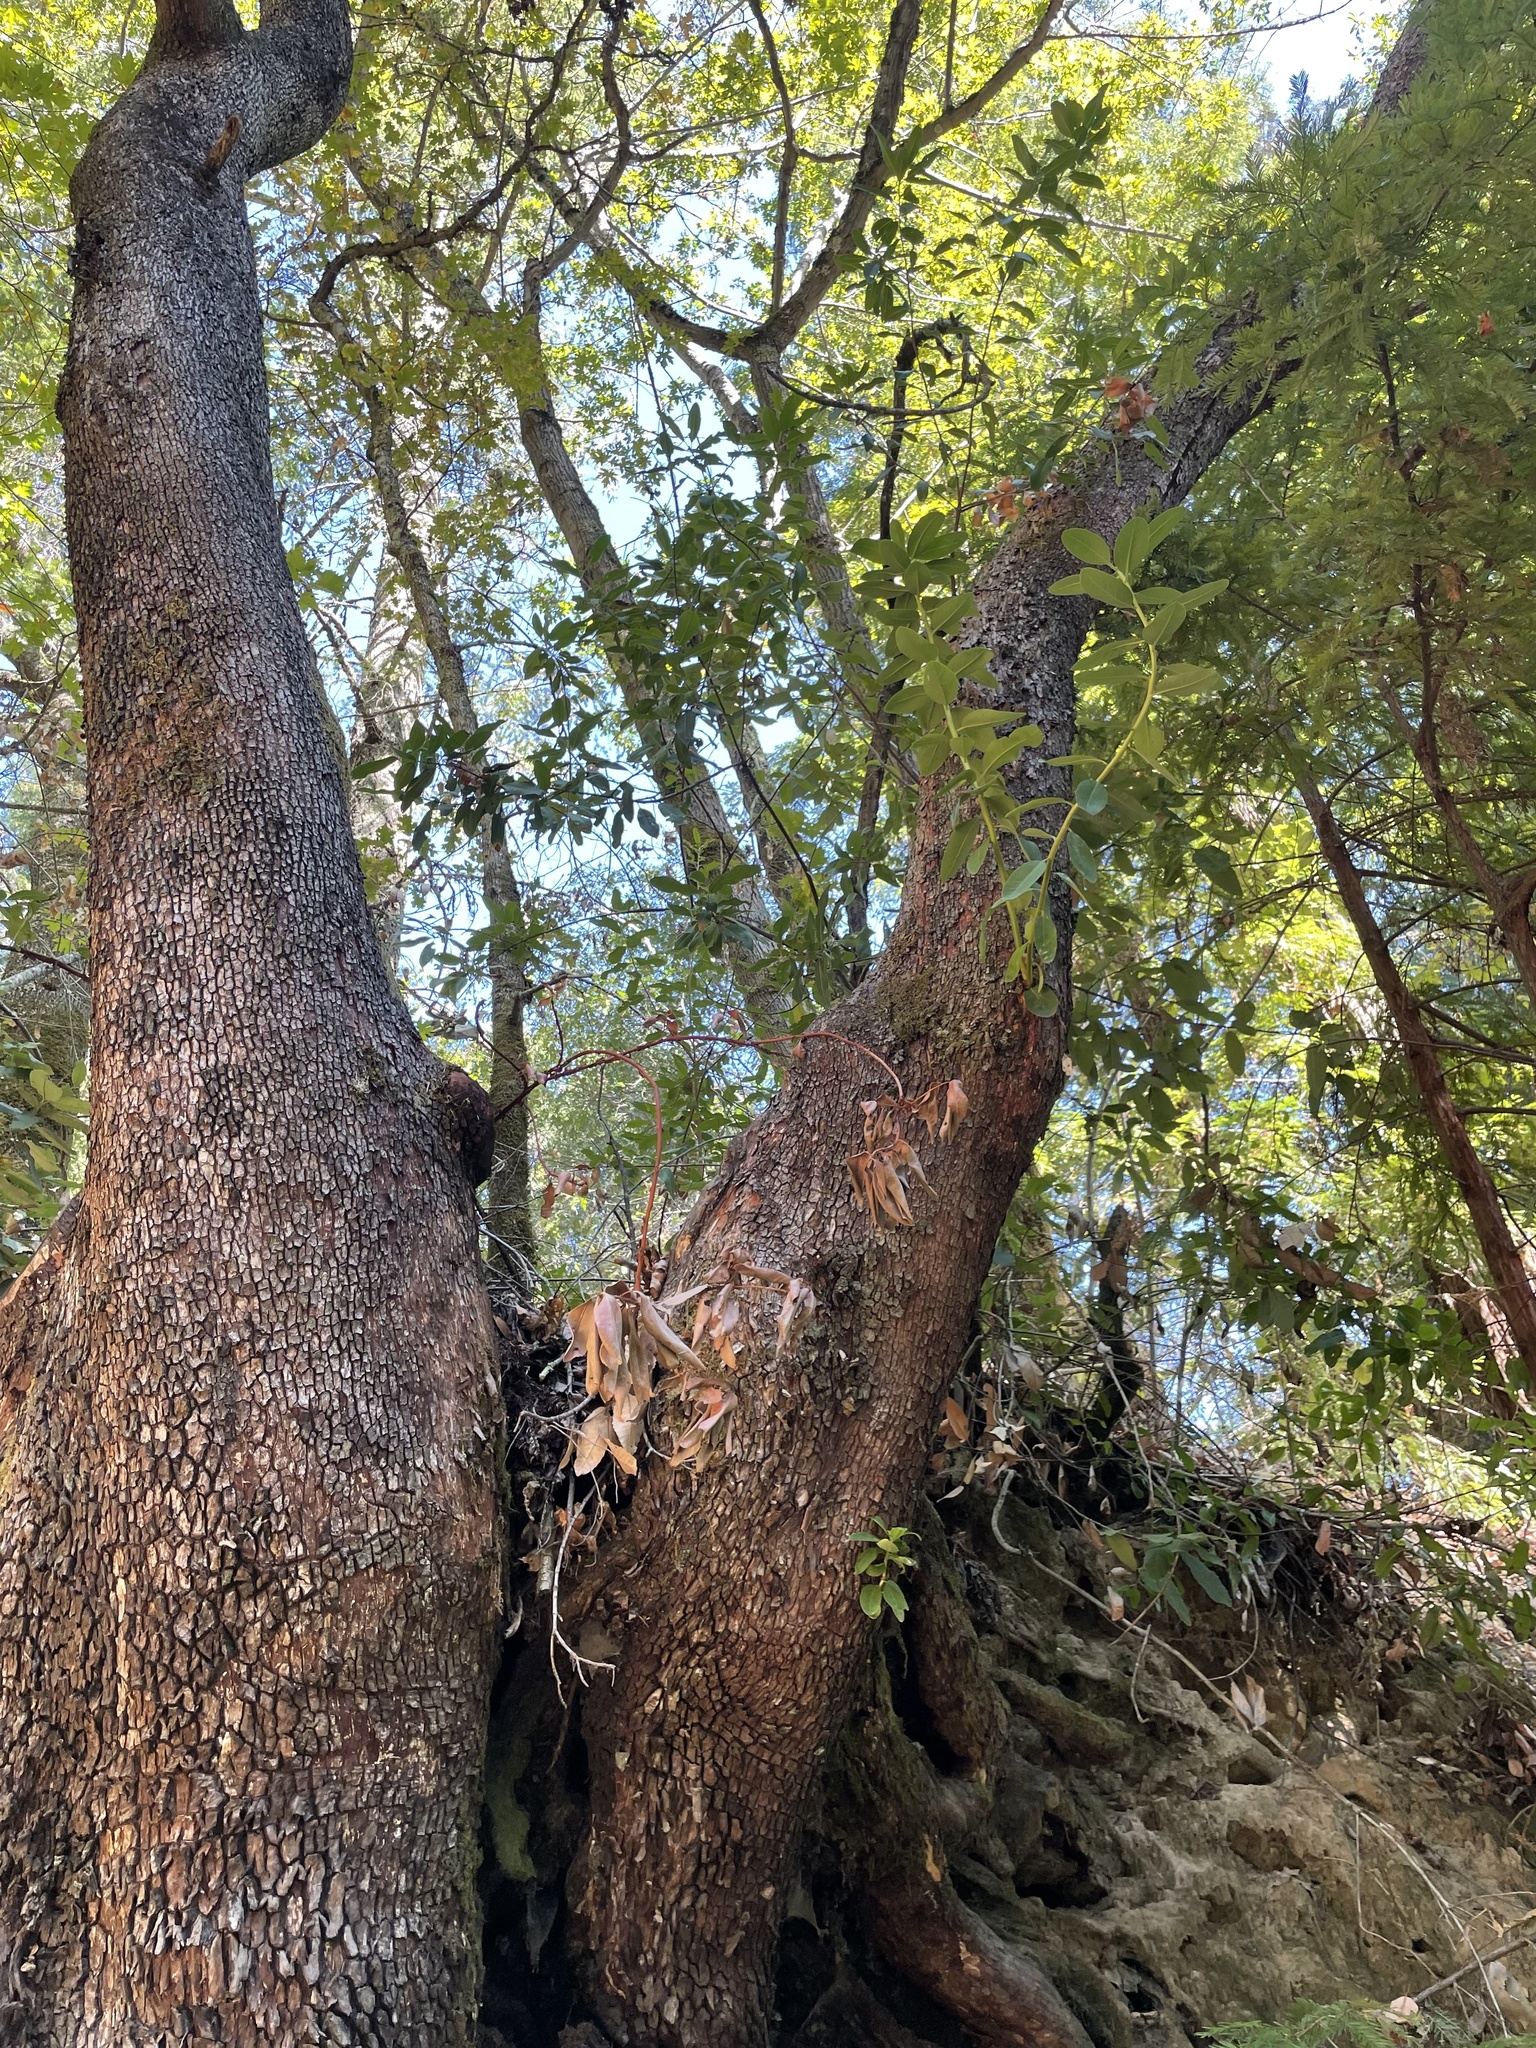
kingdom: Plantae
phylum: Tracheophyta
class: Magnoliopsida
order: Ericales
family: Ericaceae
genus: Arbutus
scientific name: Arbutus menziesii
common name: Pacific madrone
